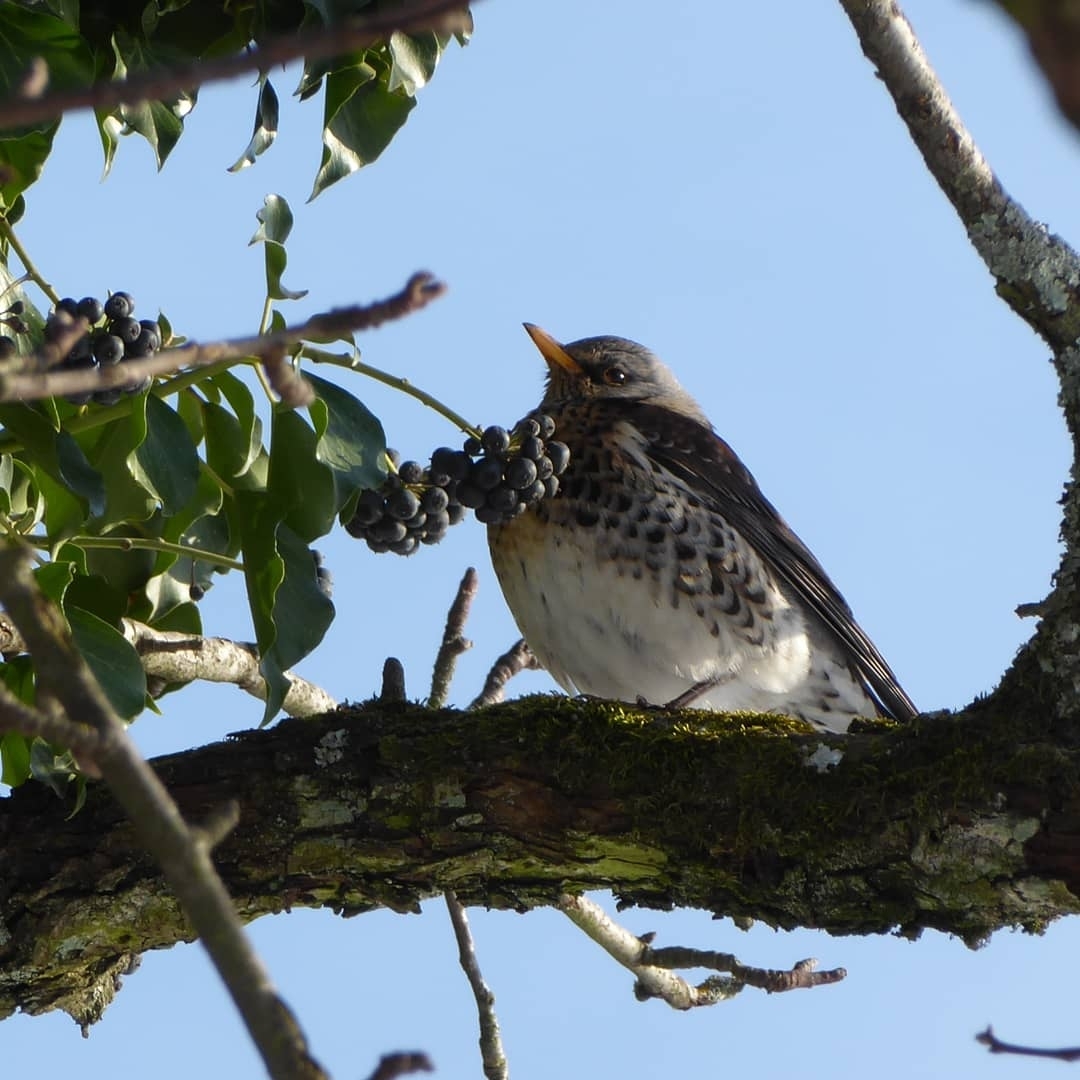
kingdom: Animalia
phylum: Chordata
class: Aves
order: Passeriformes
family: Turdidae
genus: Turdus
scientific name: Turdus pilaris
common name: Fieldfare
